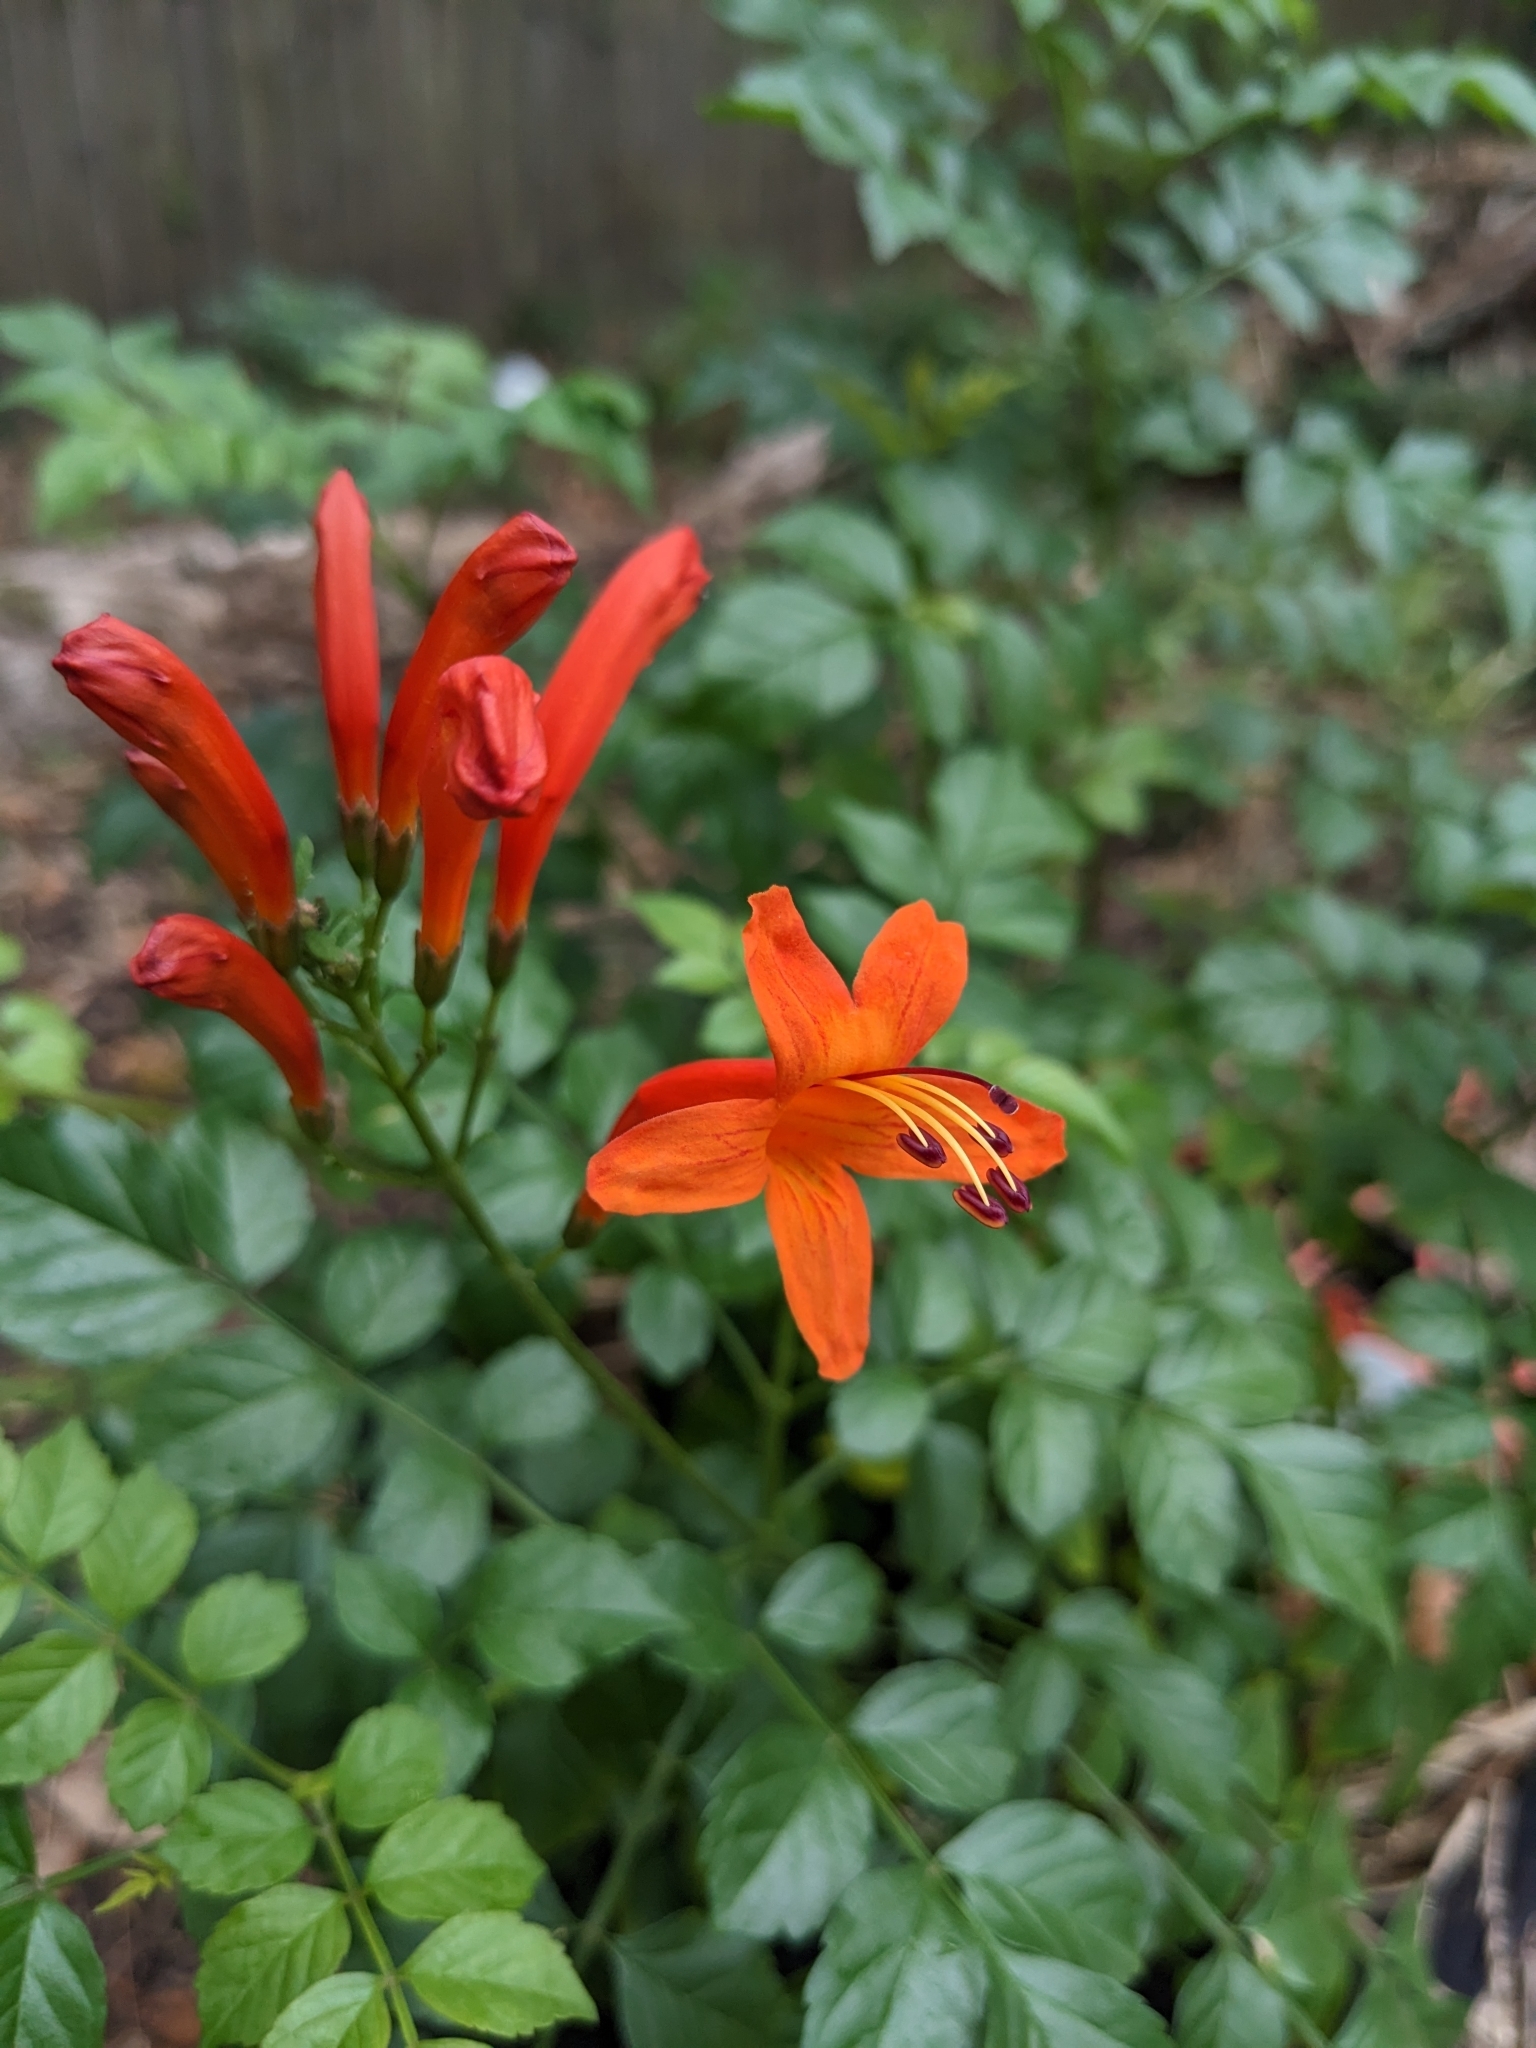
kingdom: Plantae
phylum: Tracheophyta
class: Magnoliopsida
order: Lamiales
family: Bignoniaceae
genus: Tecomaria
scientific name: Tecomaria capensis
